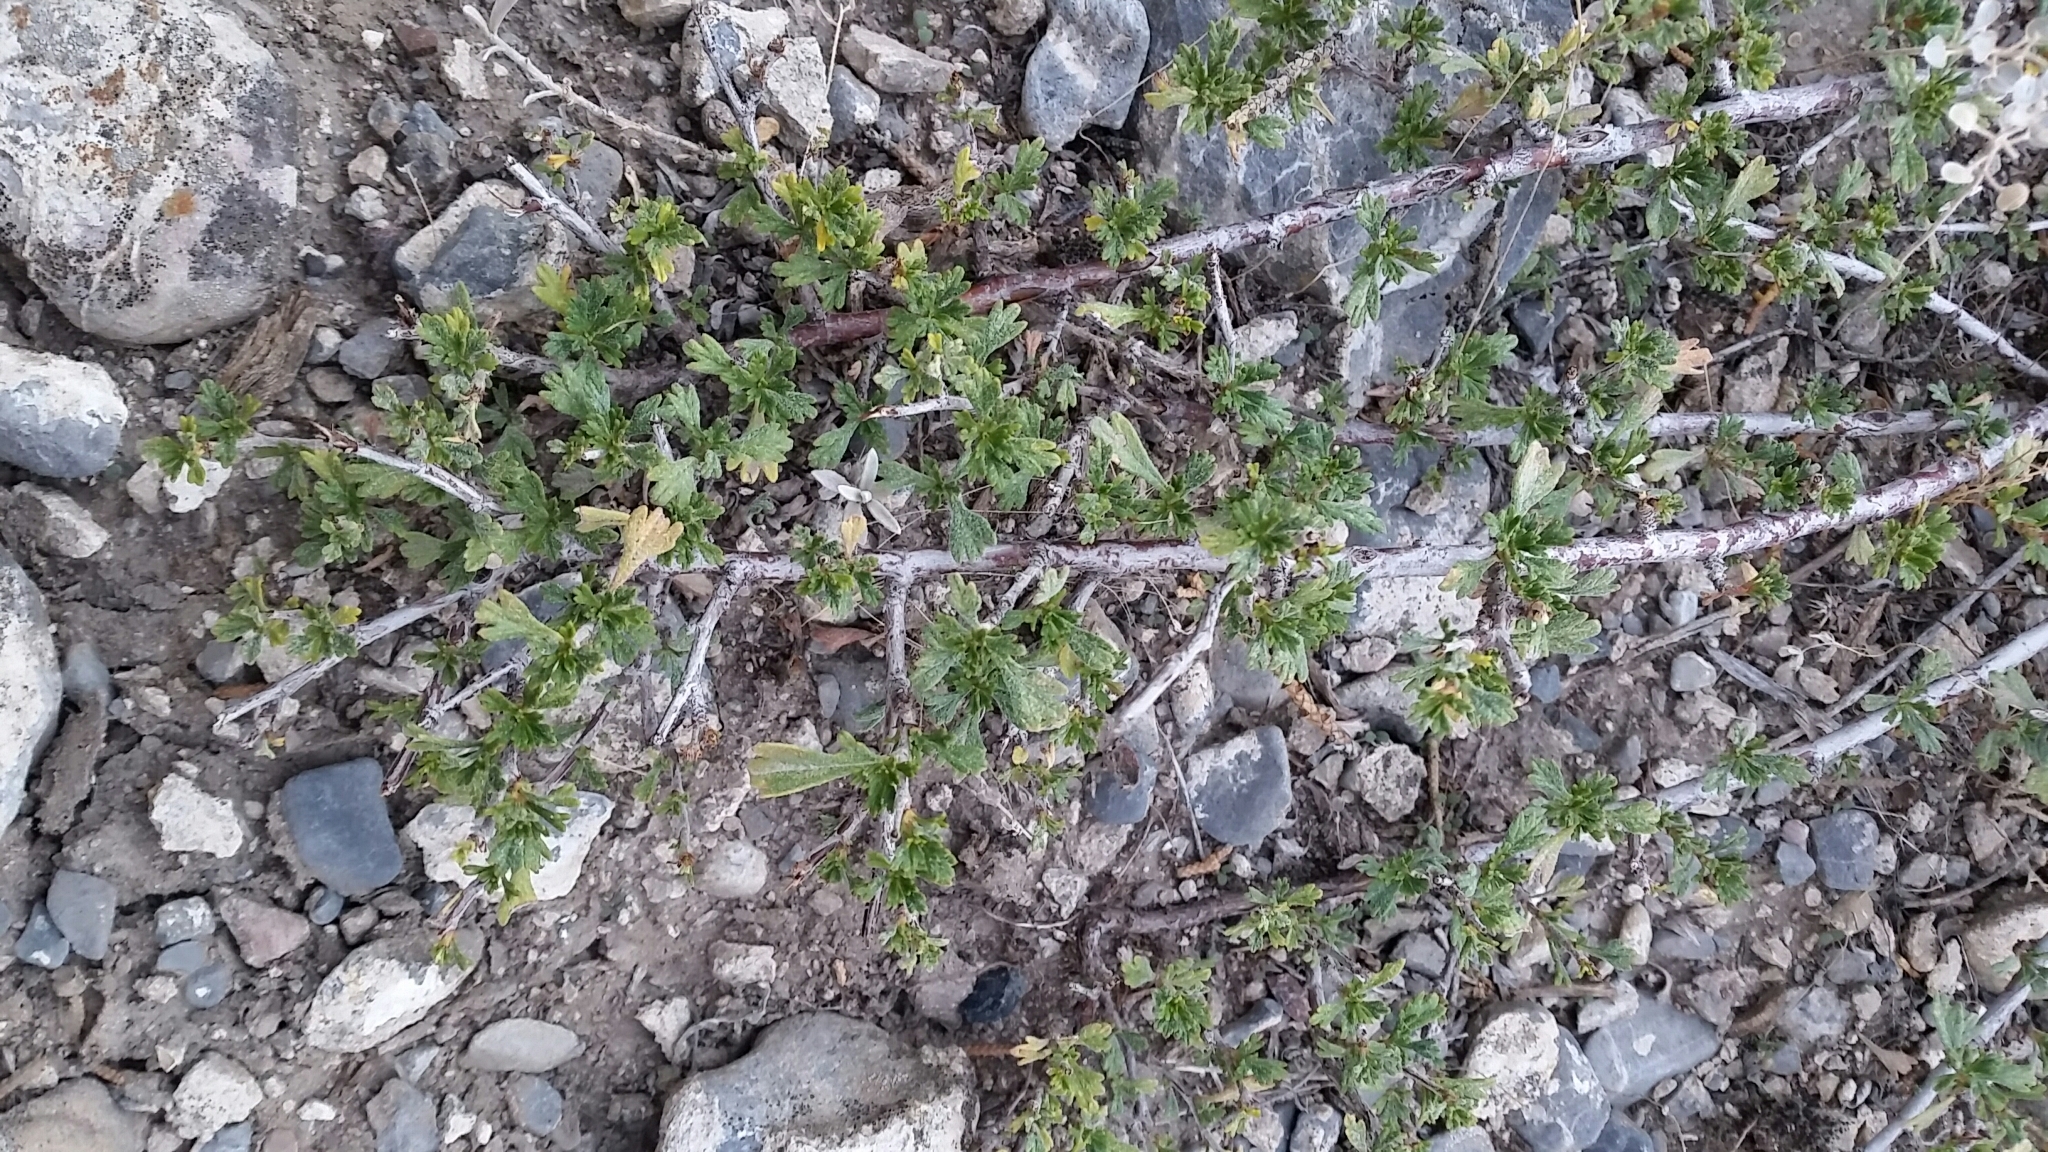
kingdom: Plantae
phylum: Tracheophyta
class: Magnoliopsida
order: Rosales
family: Rosaceae
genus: Purshia
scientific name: Purshia tridentata
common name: Antelope bitterbrush
